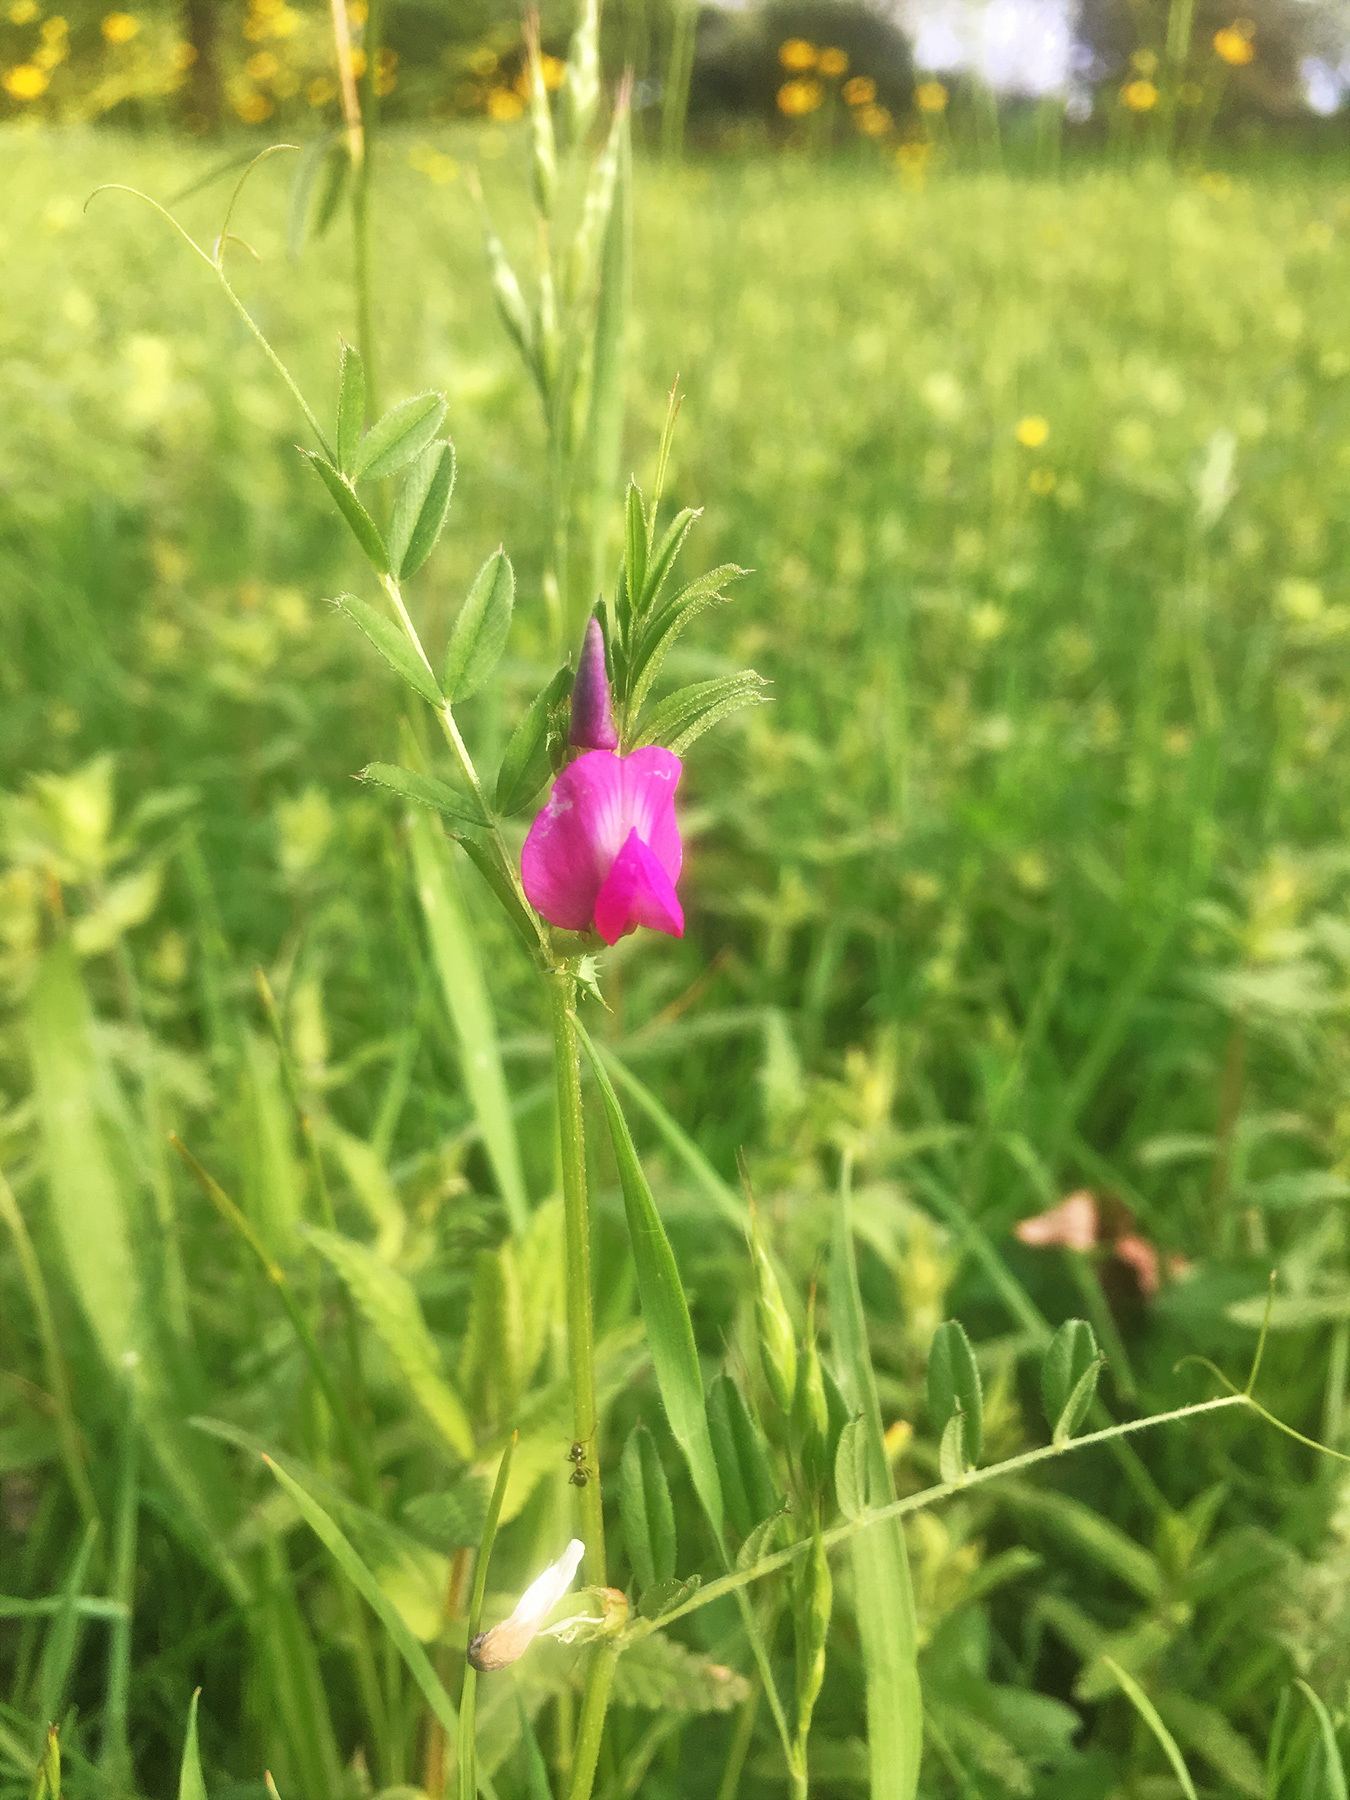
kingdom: Plantae
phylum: Tracheophyta
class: Magnoliopsida
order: Fabales
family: Fabaceae
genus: Vicia
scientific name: Vicia sativa
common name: Garden vetch
